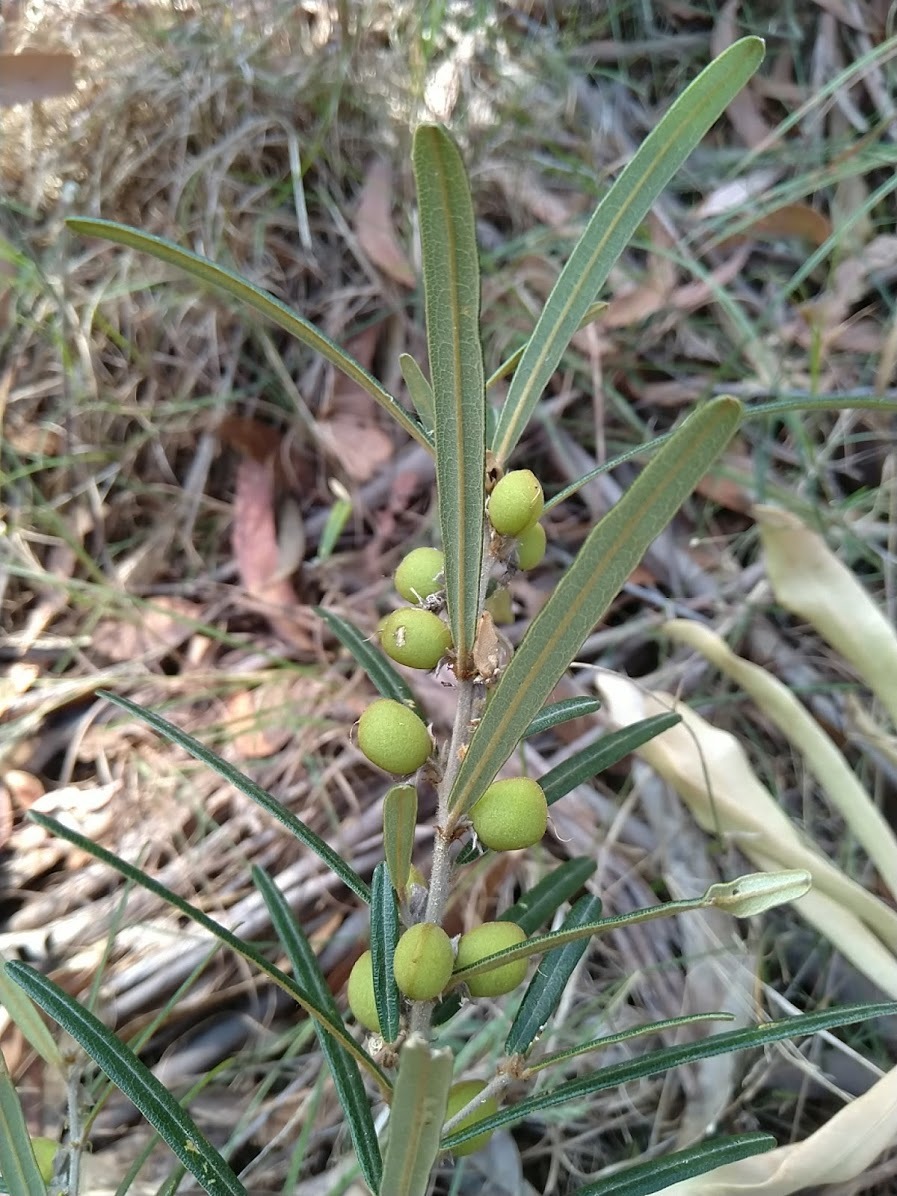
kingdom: Plantae
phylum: Tracheophyta
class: Magnoliopsida
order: Fabales
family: Fabaceae
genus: Hovea
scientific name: Hovea clavata
